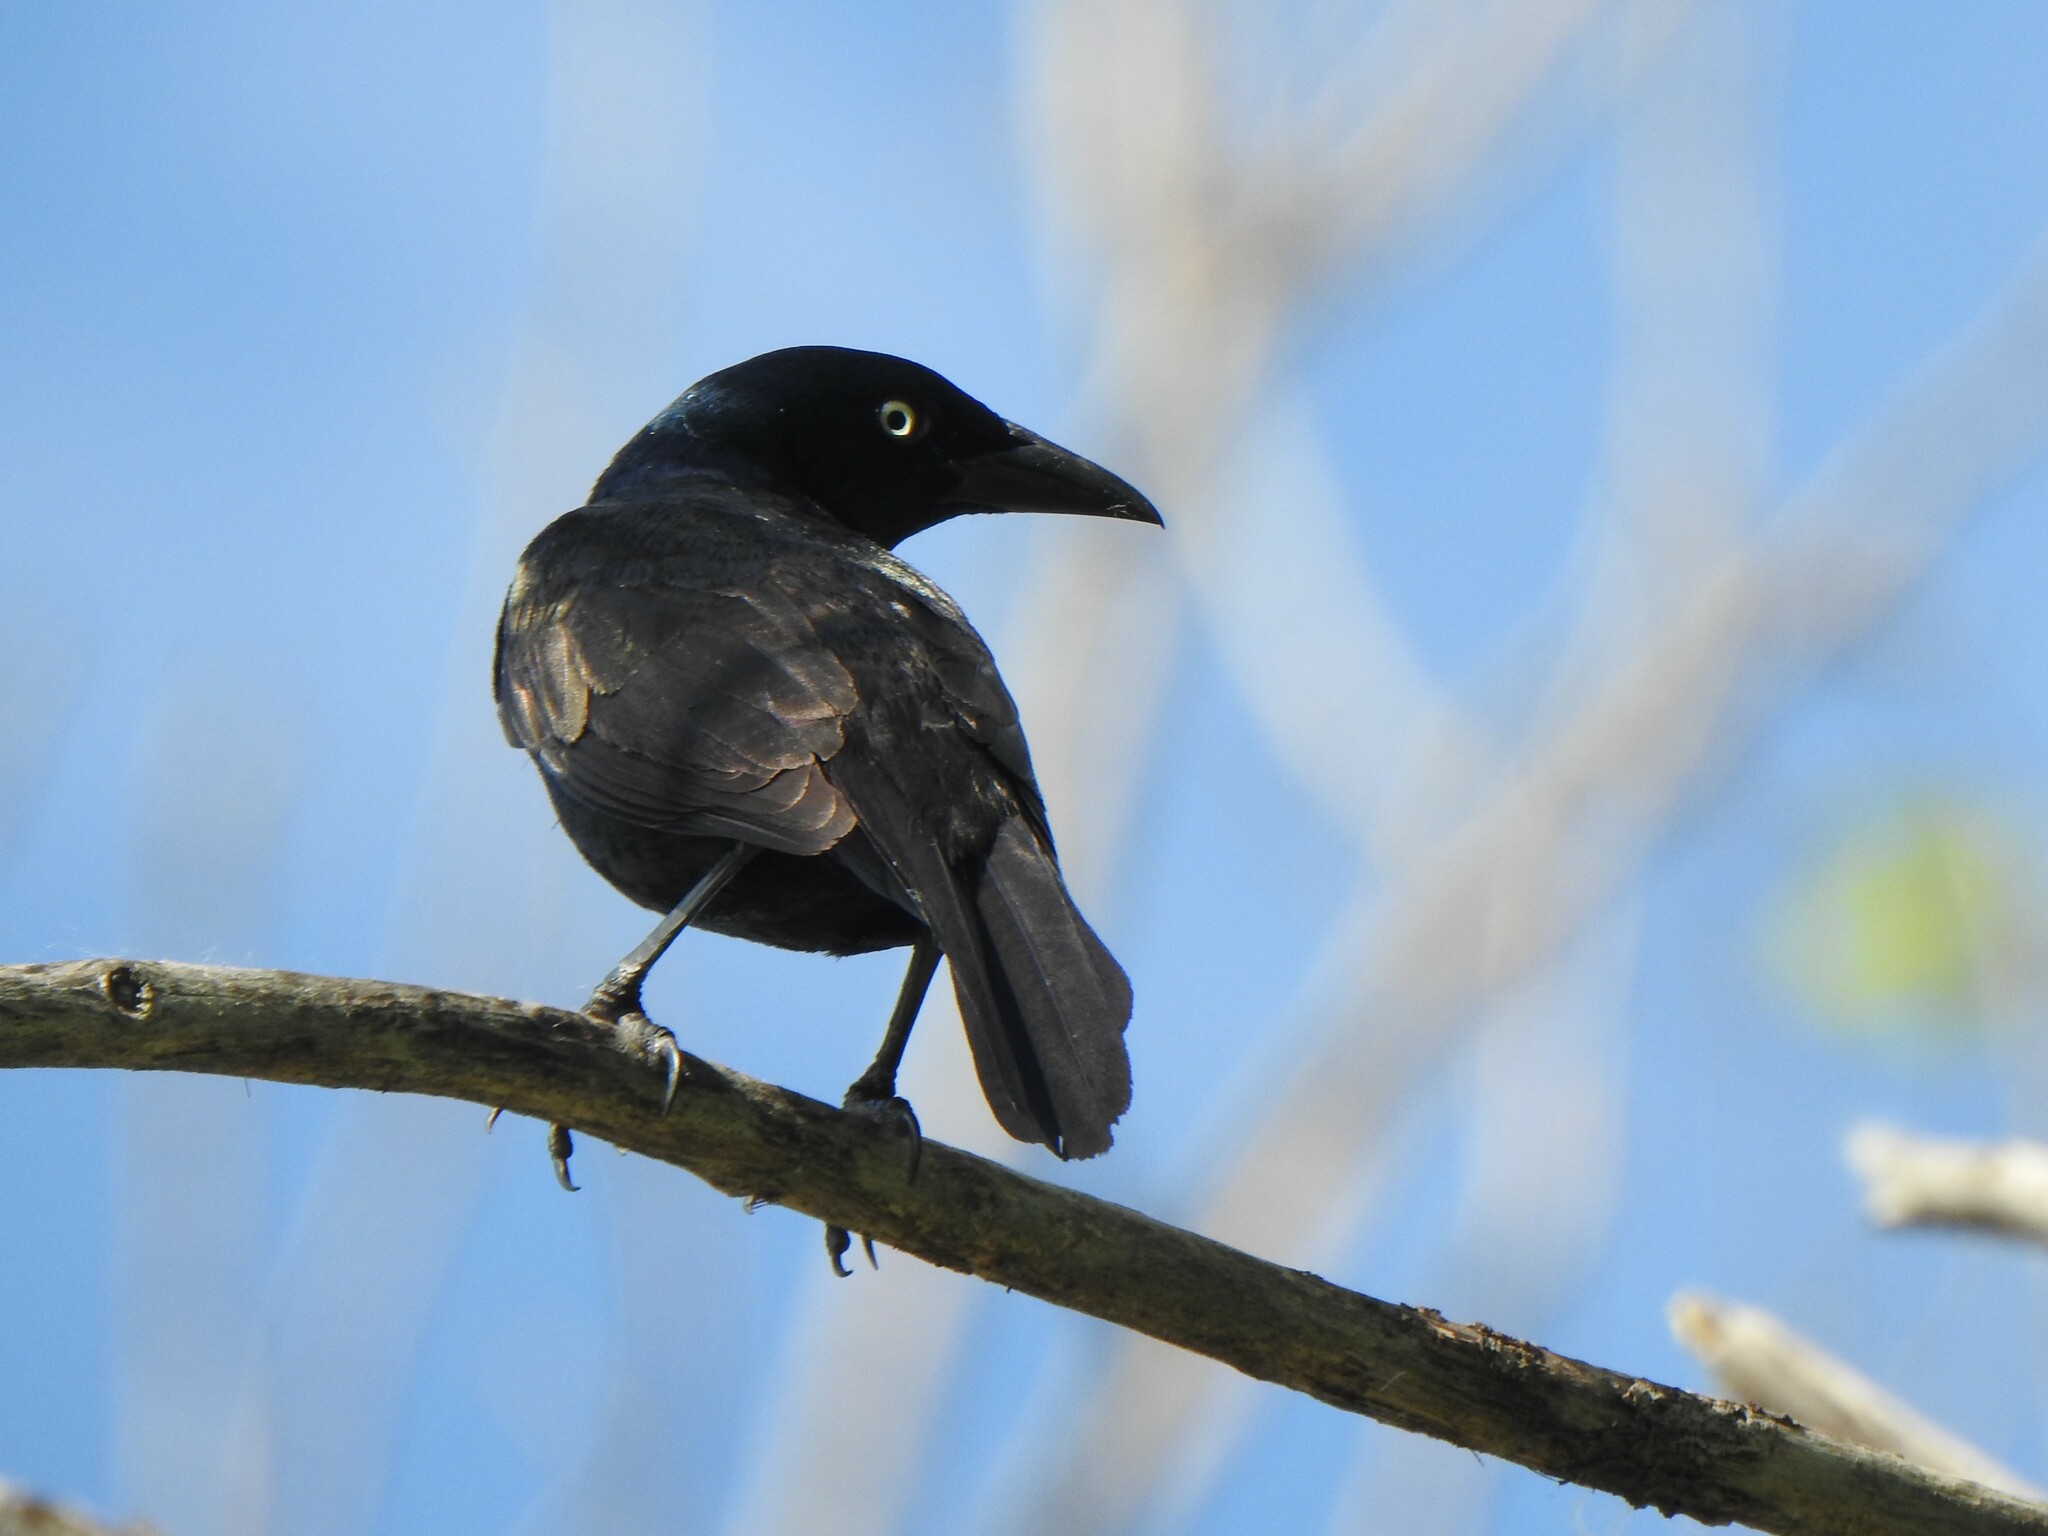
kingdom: Animalia
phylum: Chordata
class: Aves
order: Passeriformes
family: Icteridae
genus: Quiscalus
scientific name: Quiscalus quiscula
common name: Common grackle
